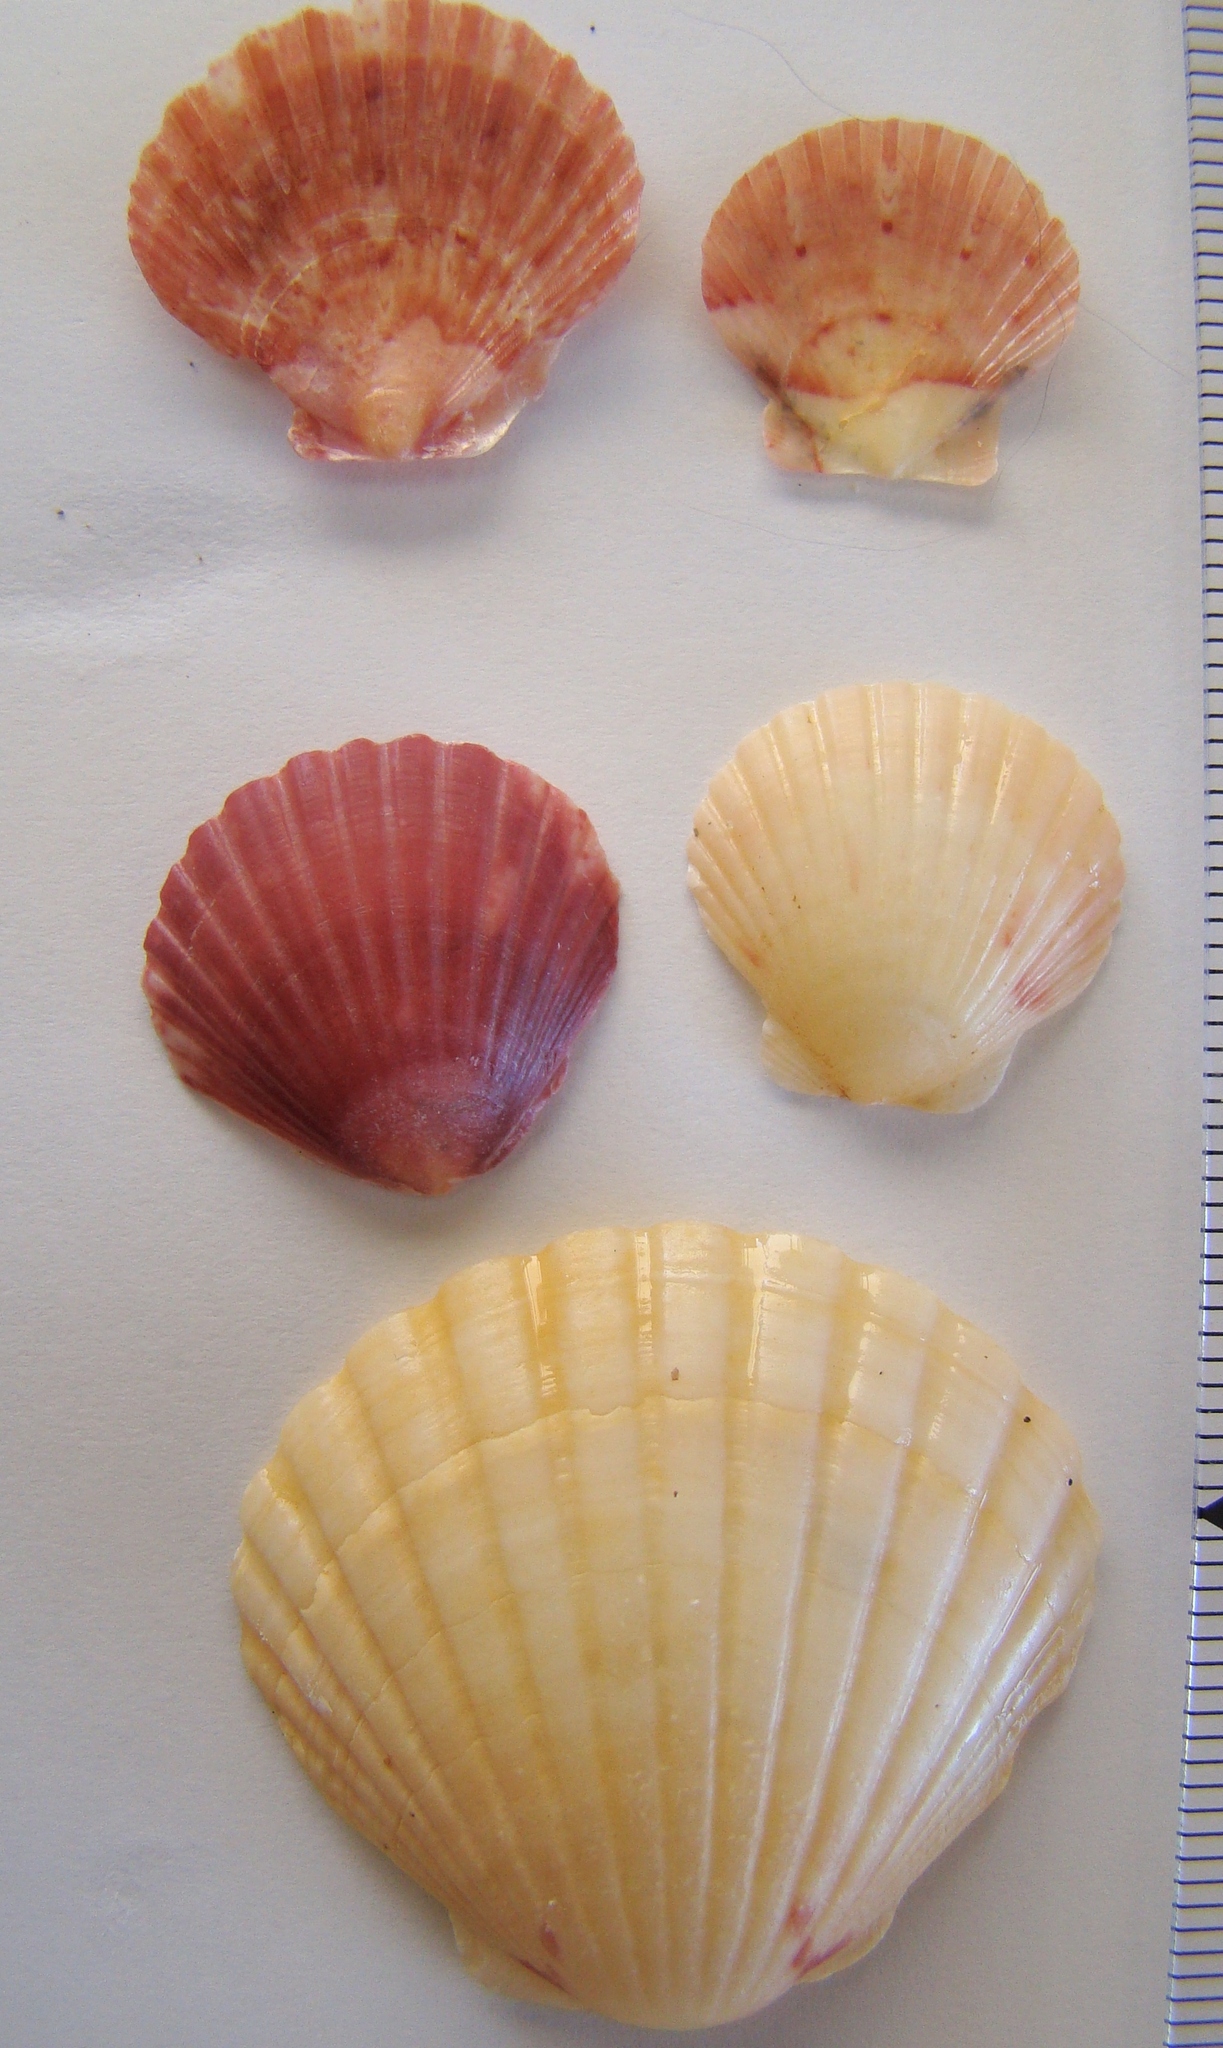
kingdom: Animalia
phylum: Mollusca
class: Bivalvia
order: Pectinida
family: Pectinidae
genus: Pecten
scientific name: Pecten novaezelandiae
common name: New zealand scallop
